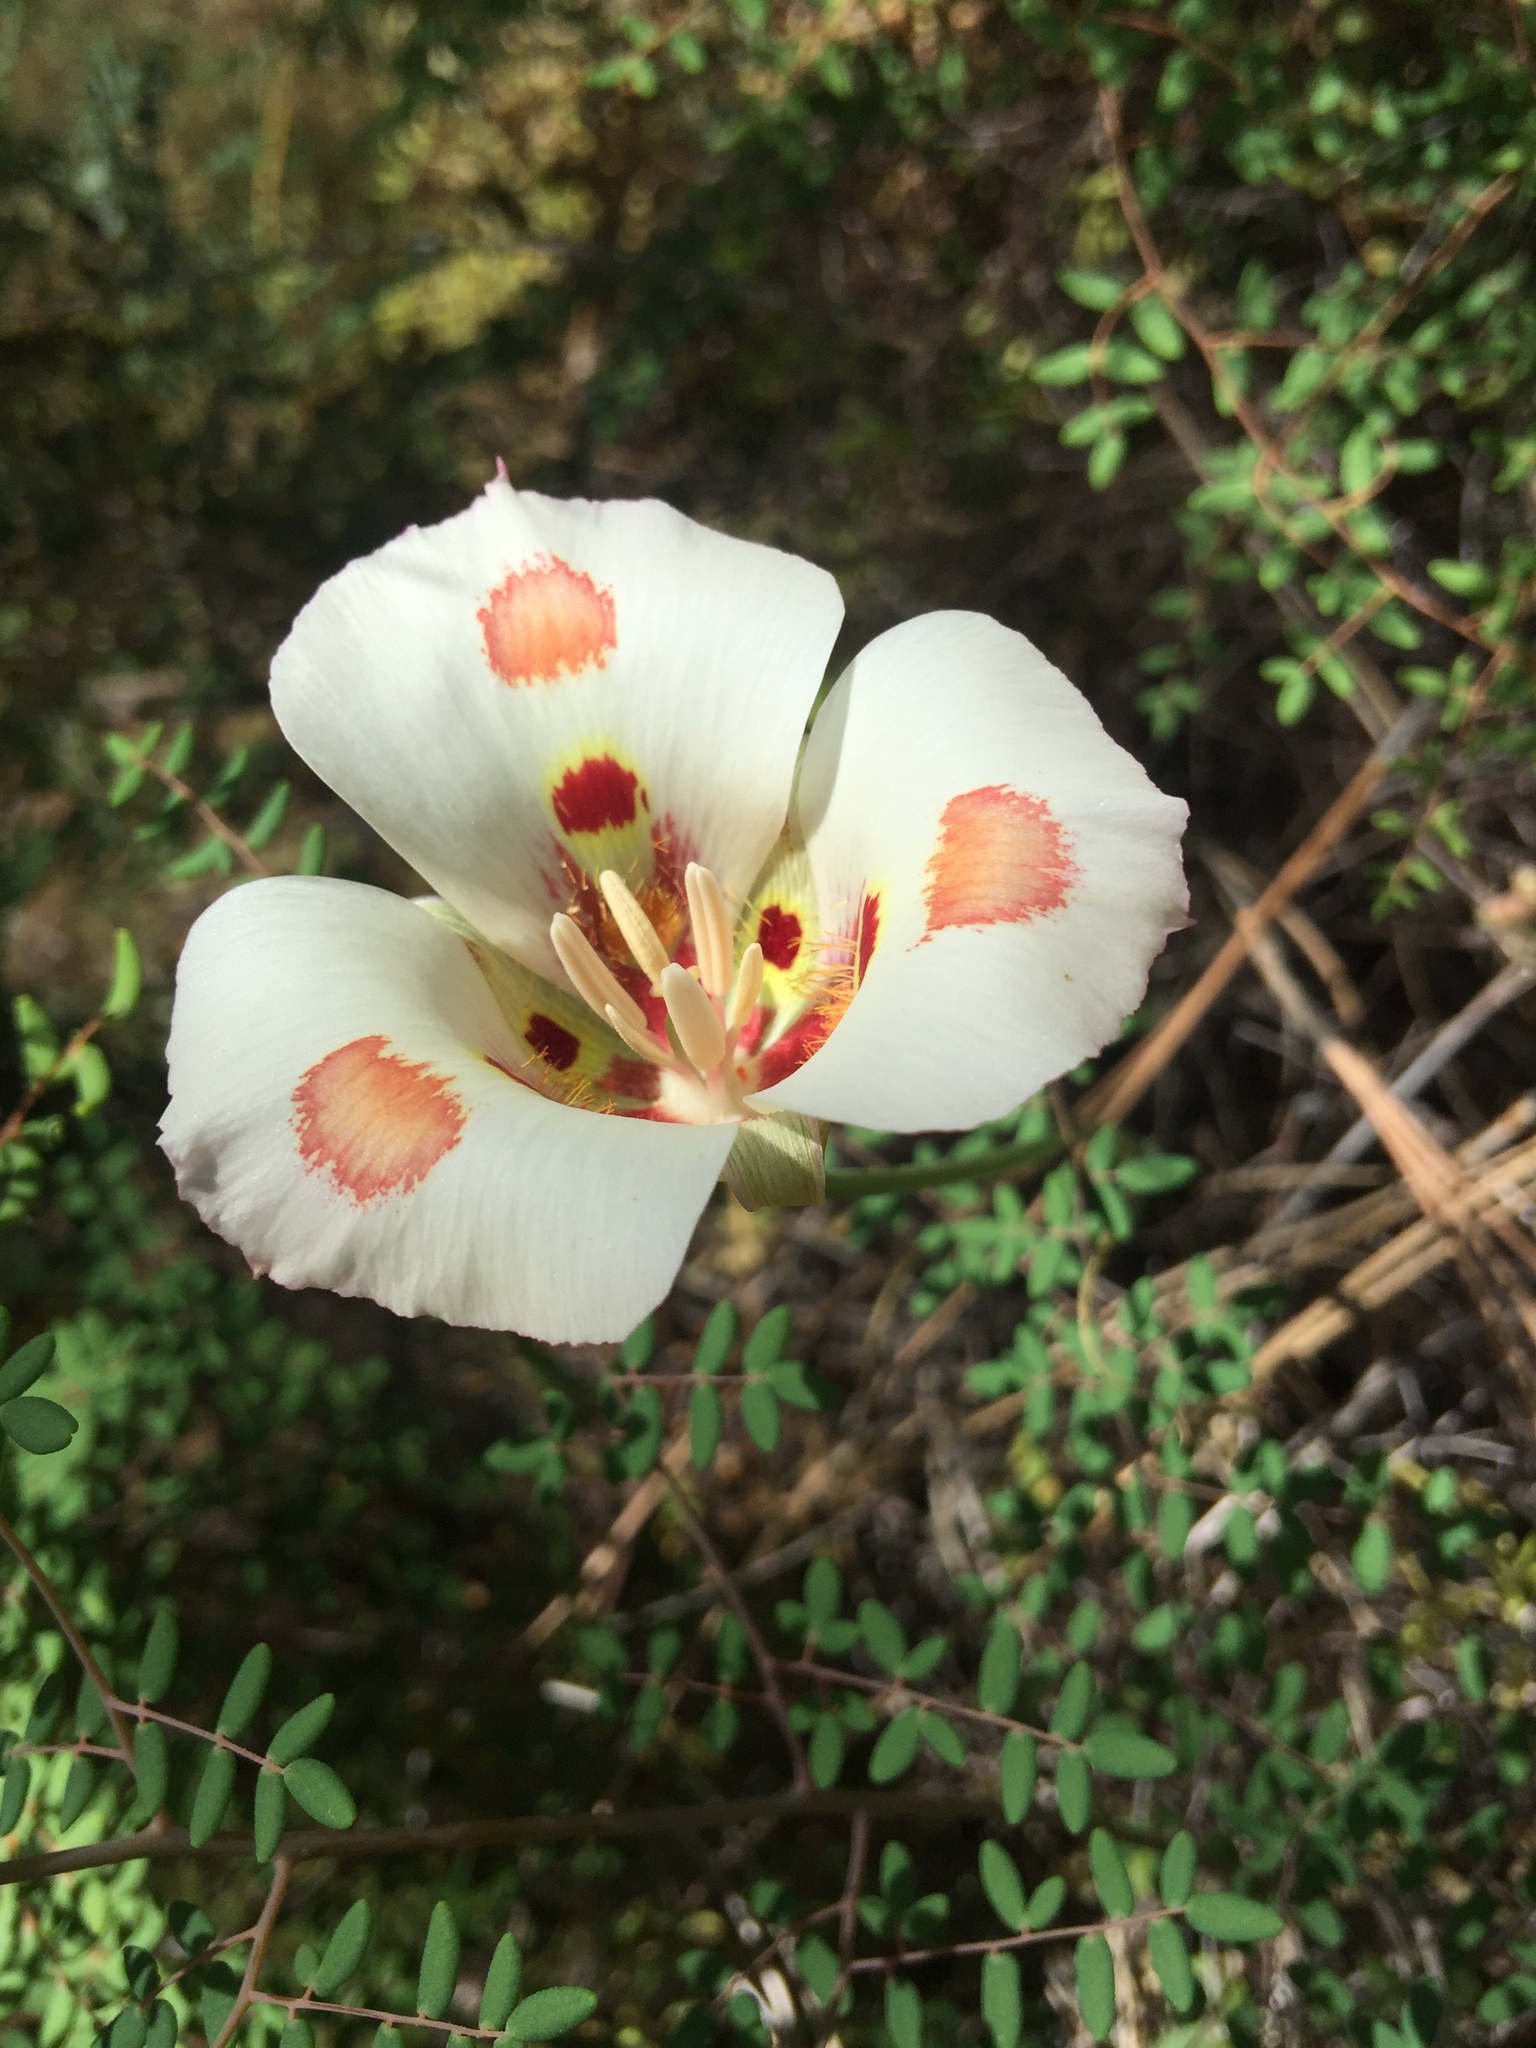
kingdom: Plantae
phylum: Tracheophyta
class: Liliopsida
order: Liliales
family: Liliaceae
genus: Calochortus
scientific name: Calochortus venustus
